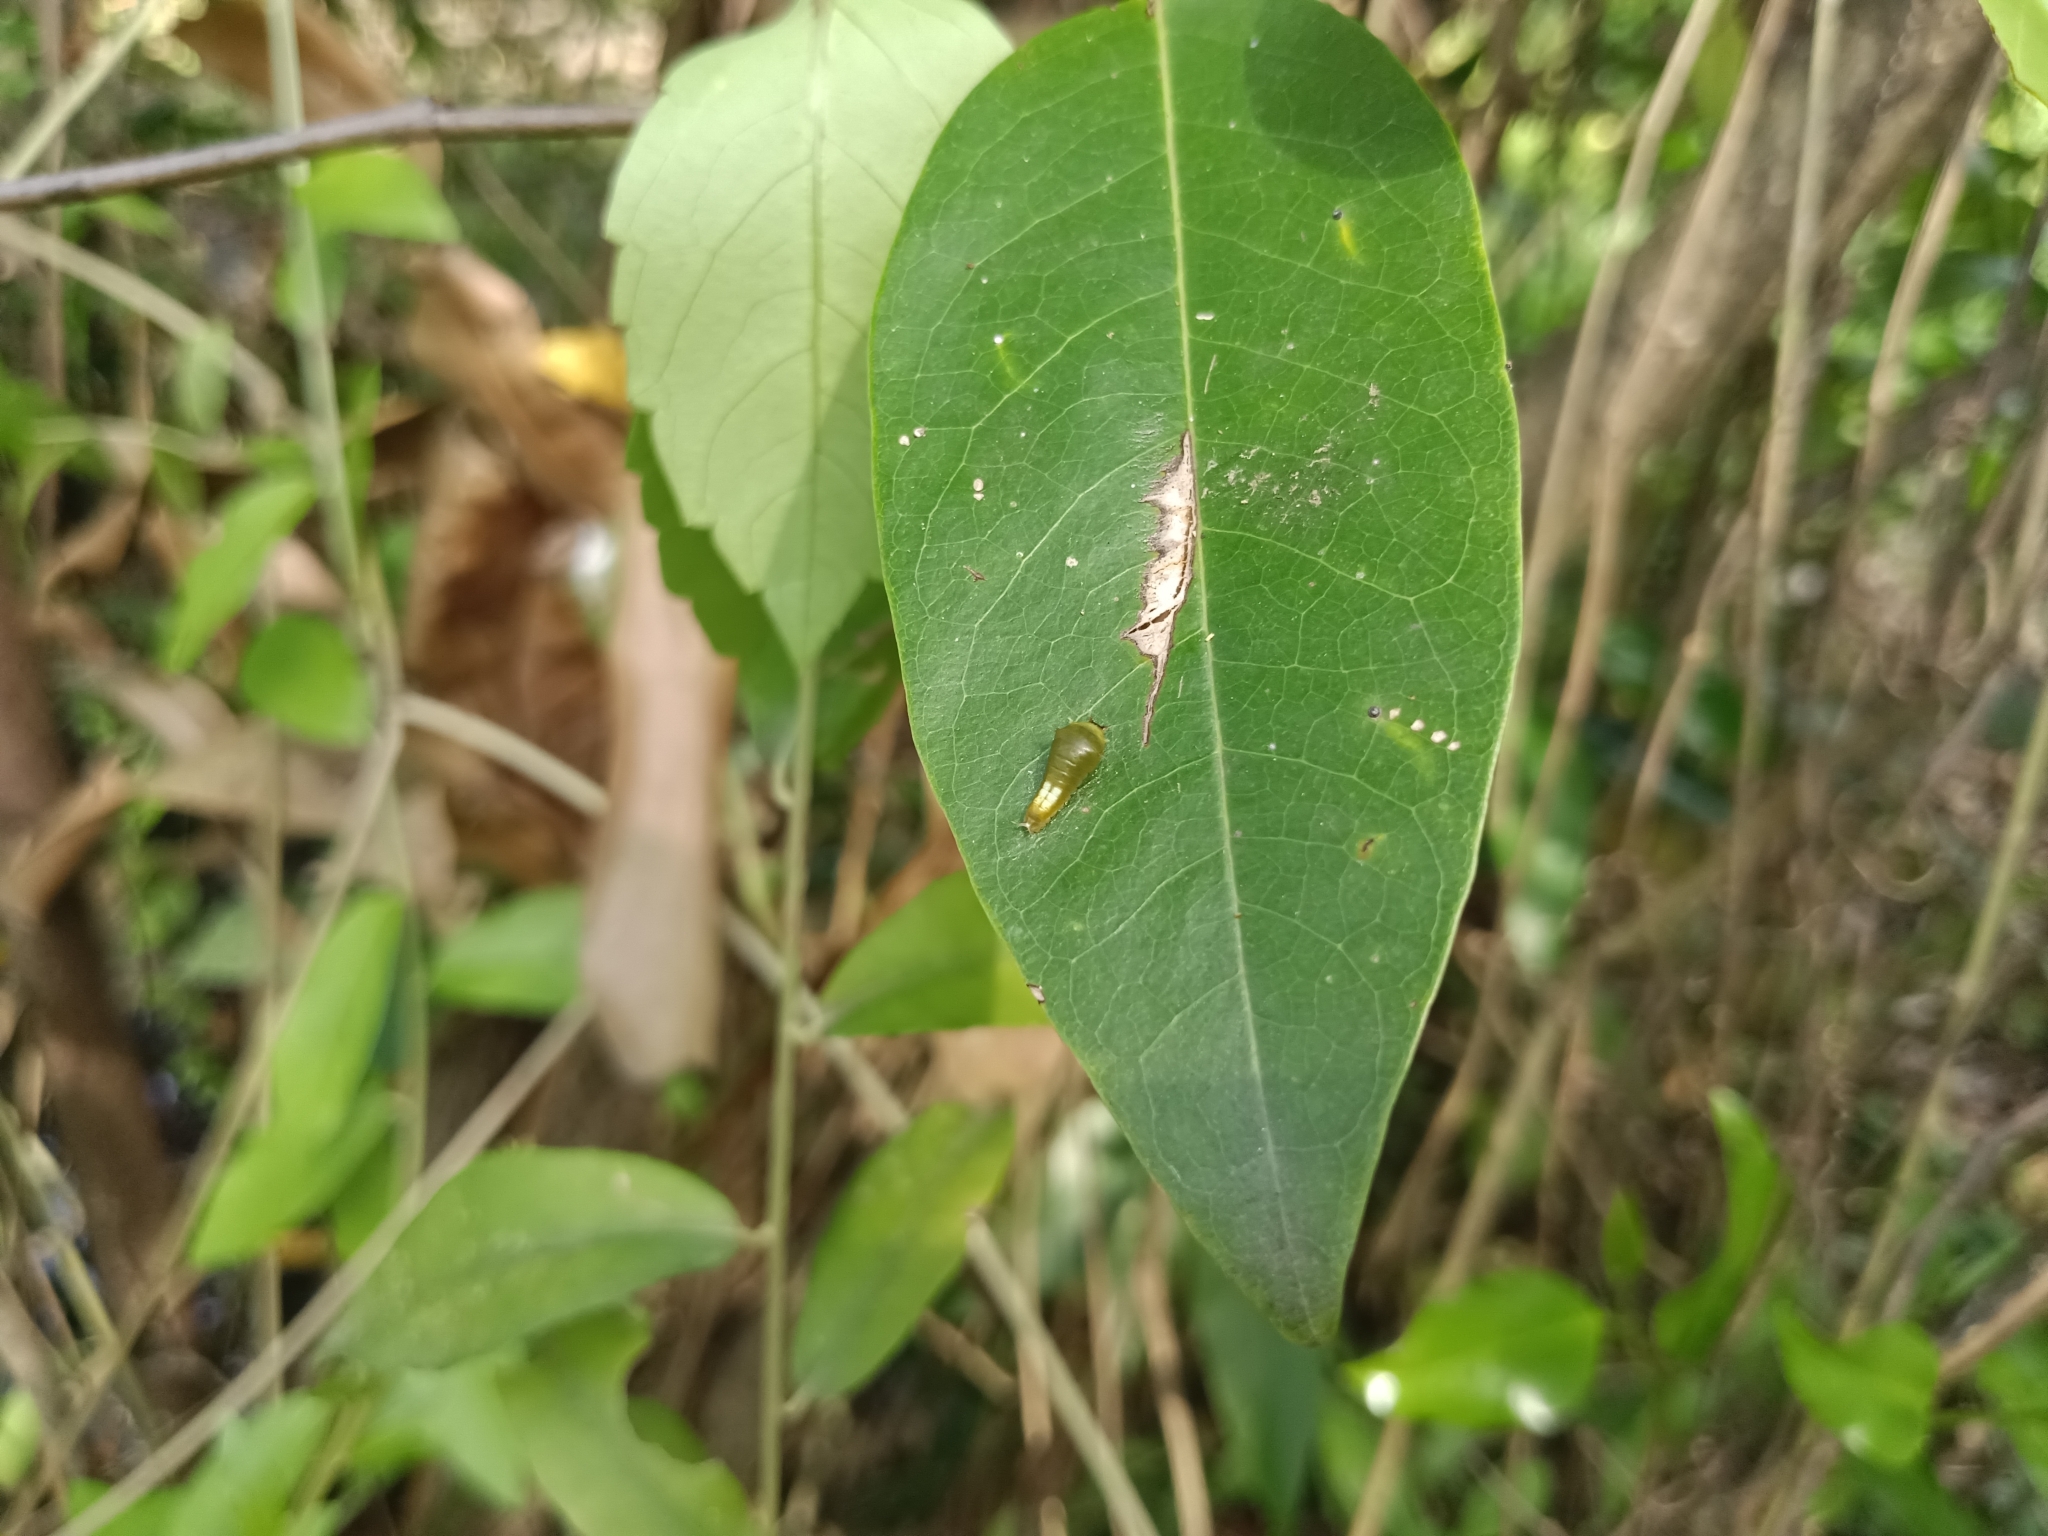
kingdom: Animalia
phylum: Arthropoda
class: Insecta
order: Lepidoptera
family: Papilionidae
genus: Graphium
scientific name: Graphium agamemnon
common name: Tailed jay
